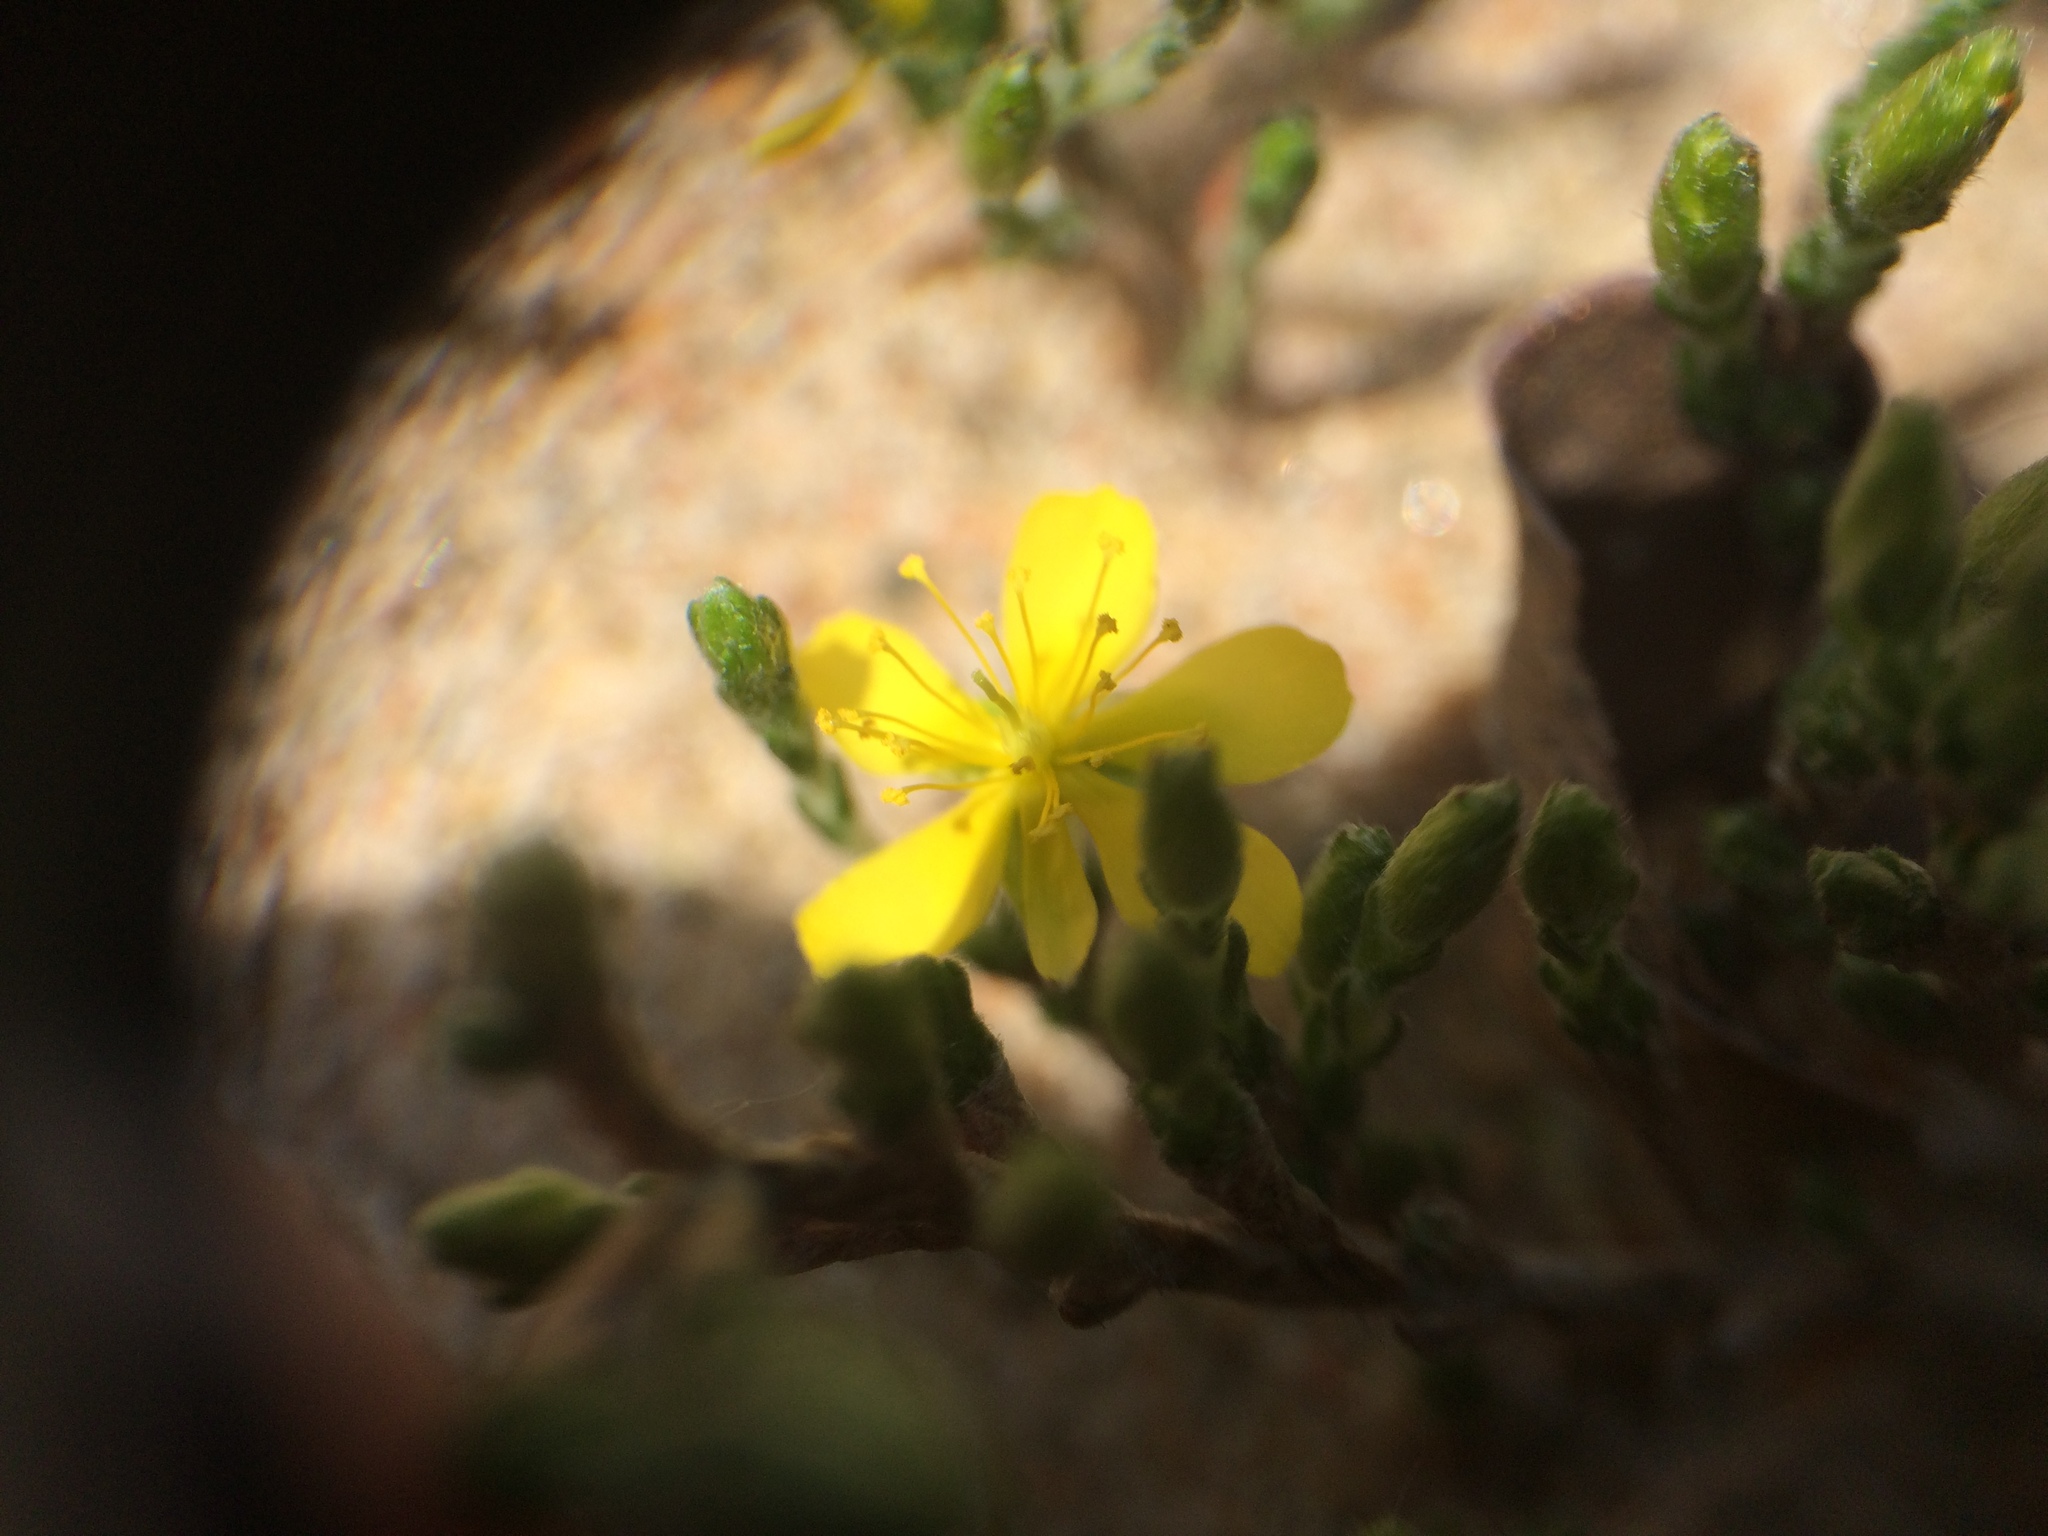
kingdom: Plantae
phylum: Tracheophyta
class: Magnoliopsida
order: Malvales
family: Cistaceae
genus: Hudsonia
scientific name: Hudsonia tomentosa
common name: Beach-heath
